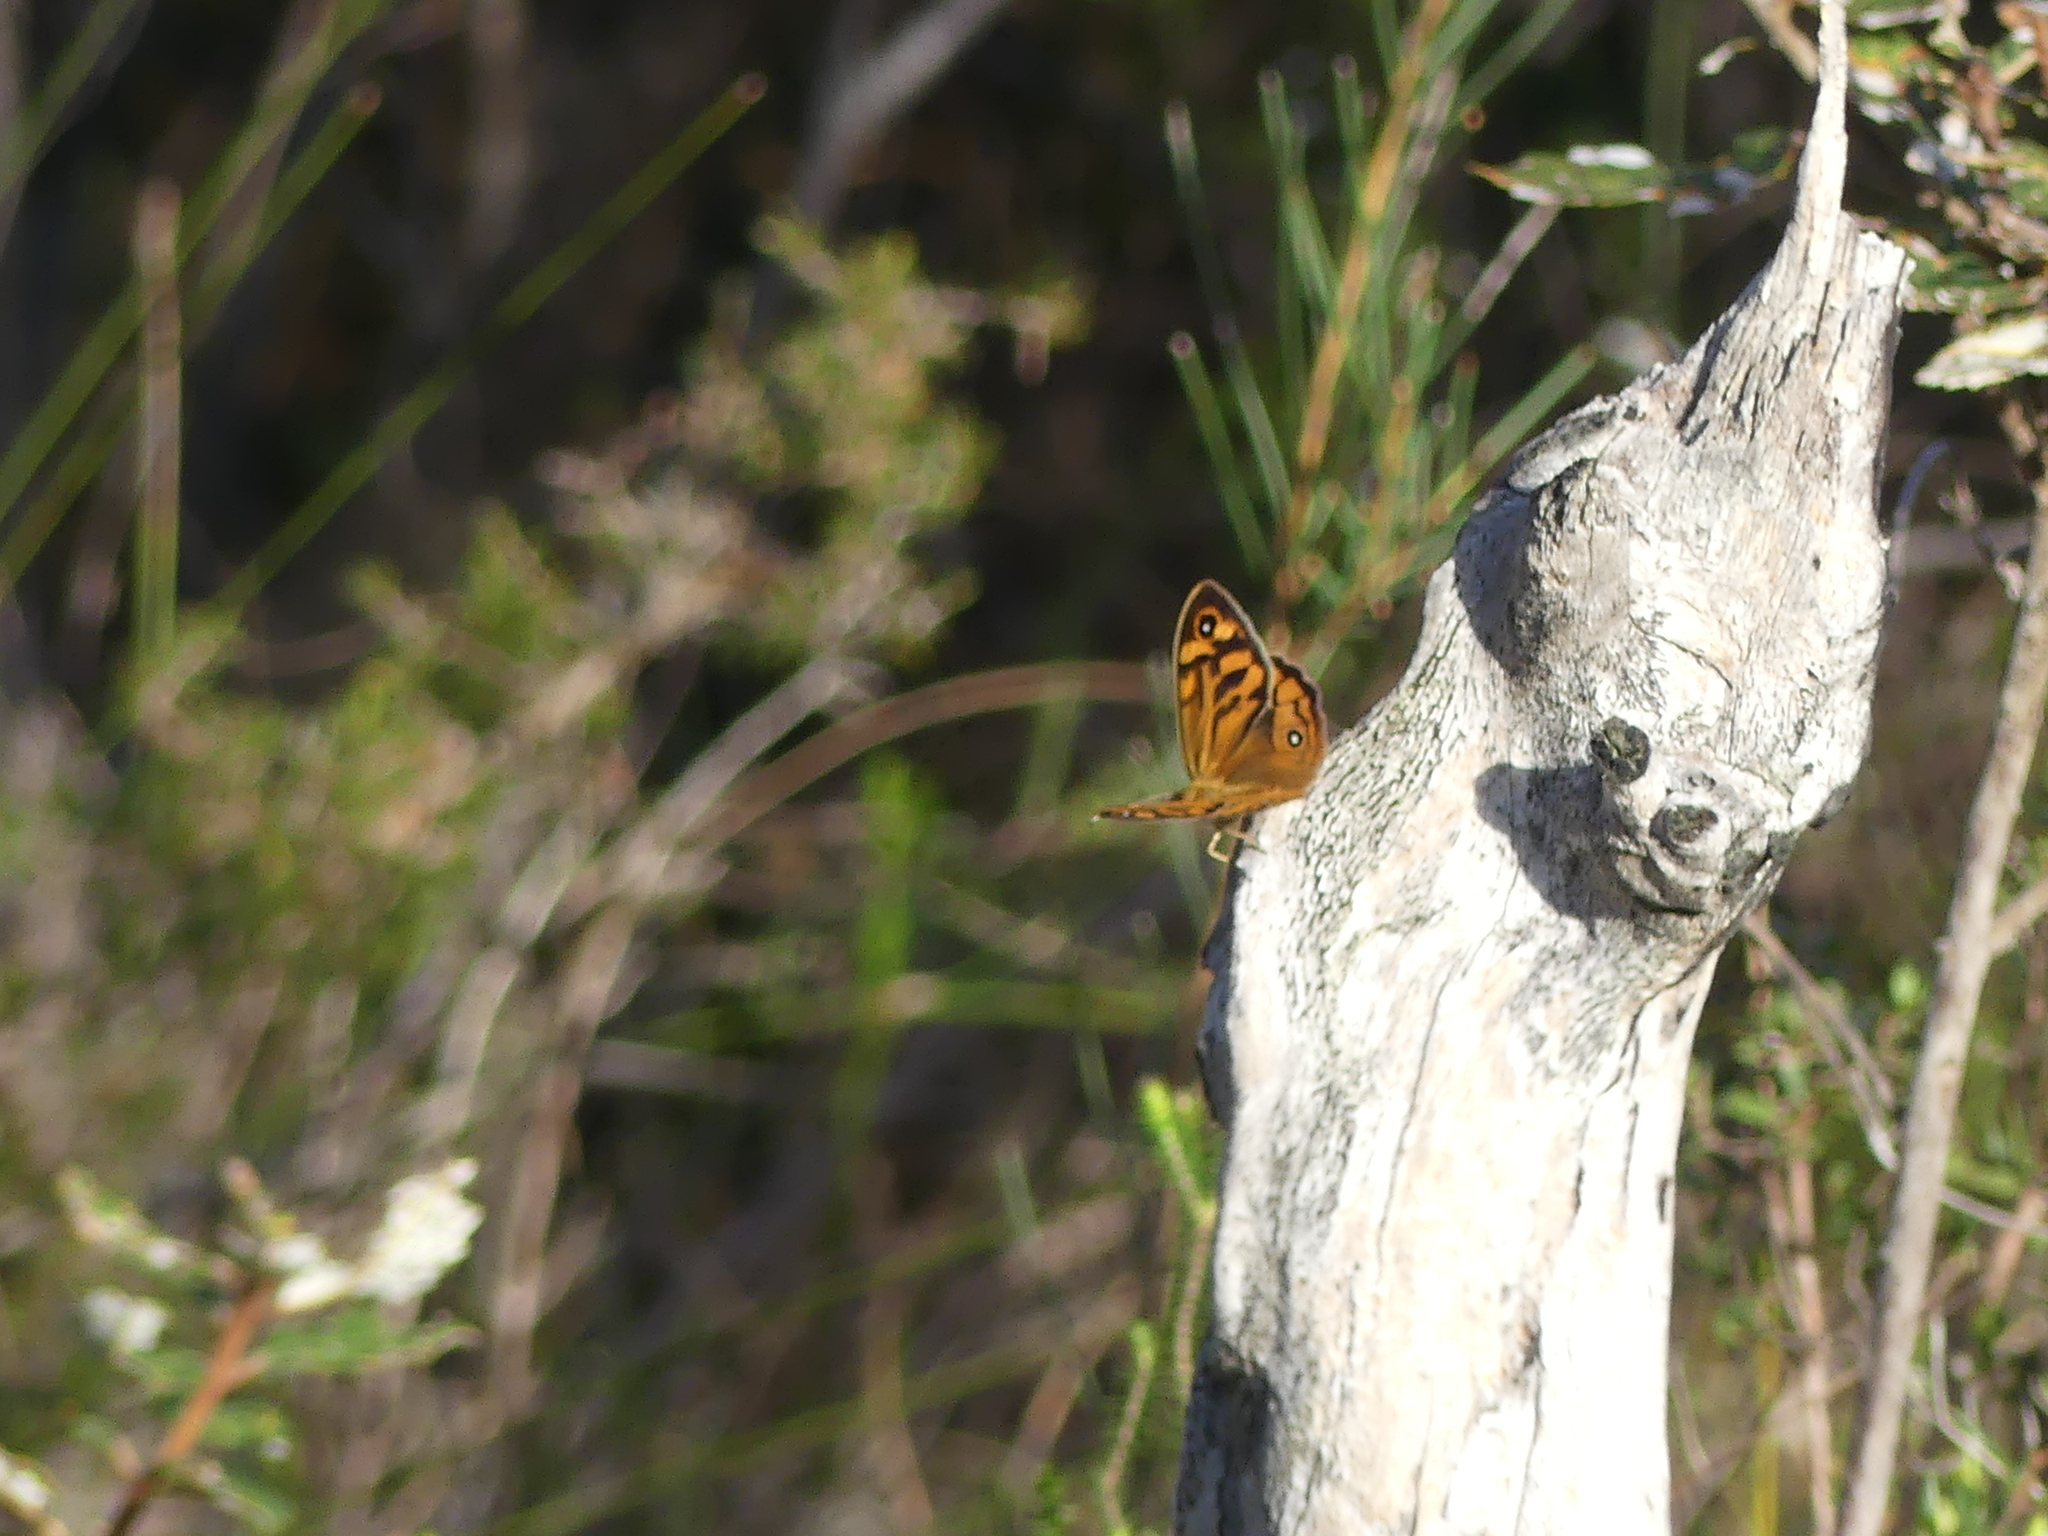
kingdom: Animalia
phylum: Arthropoda
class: Insecta
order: Lepidoptera
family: Nymphalidae
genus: Heteronympha
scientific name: Heteronympha merope
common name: Common brown
